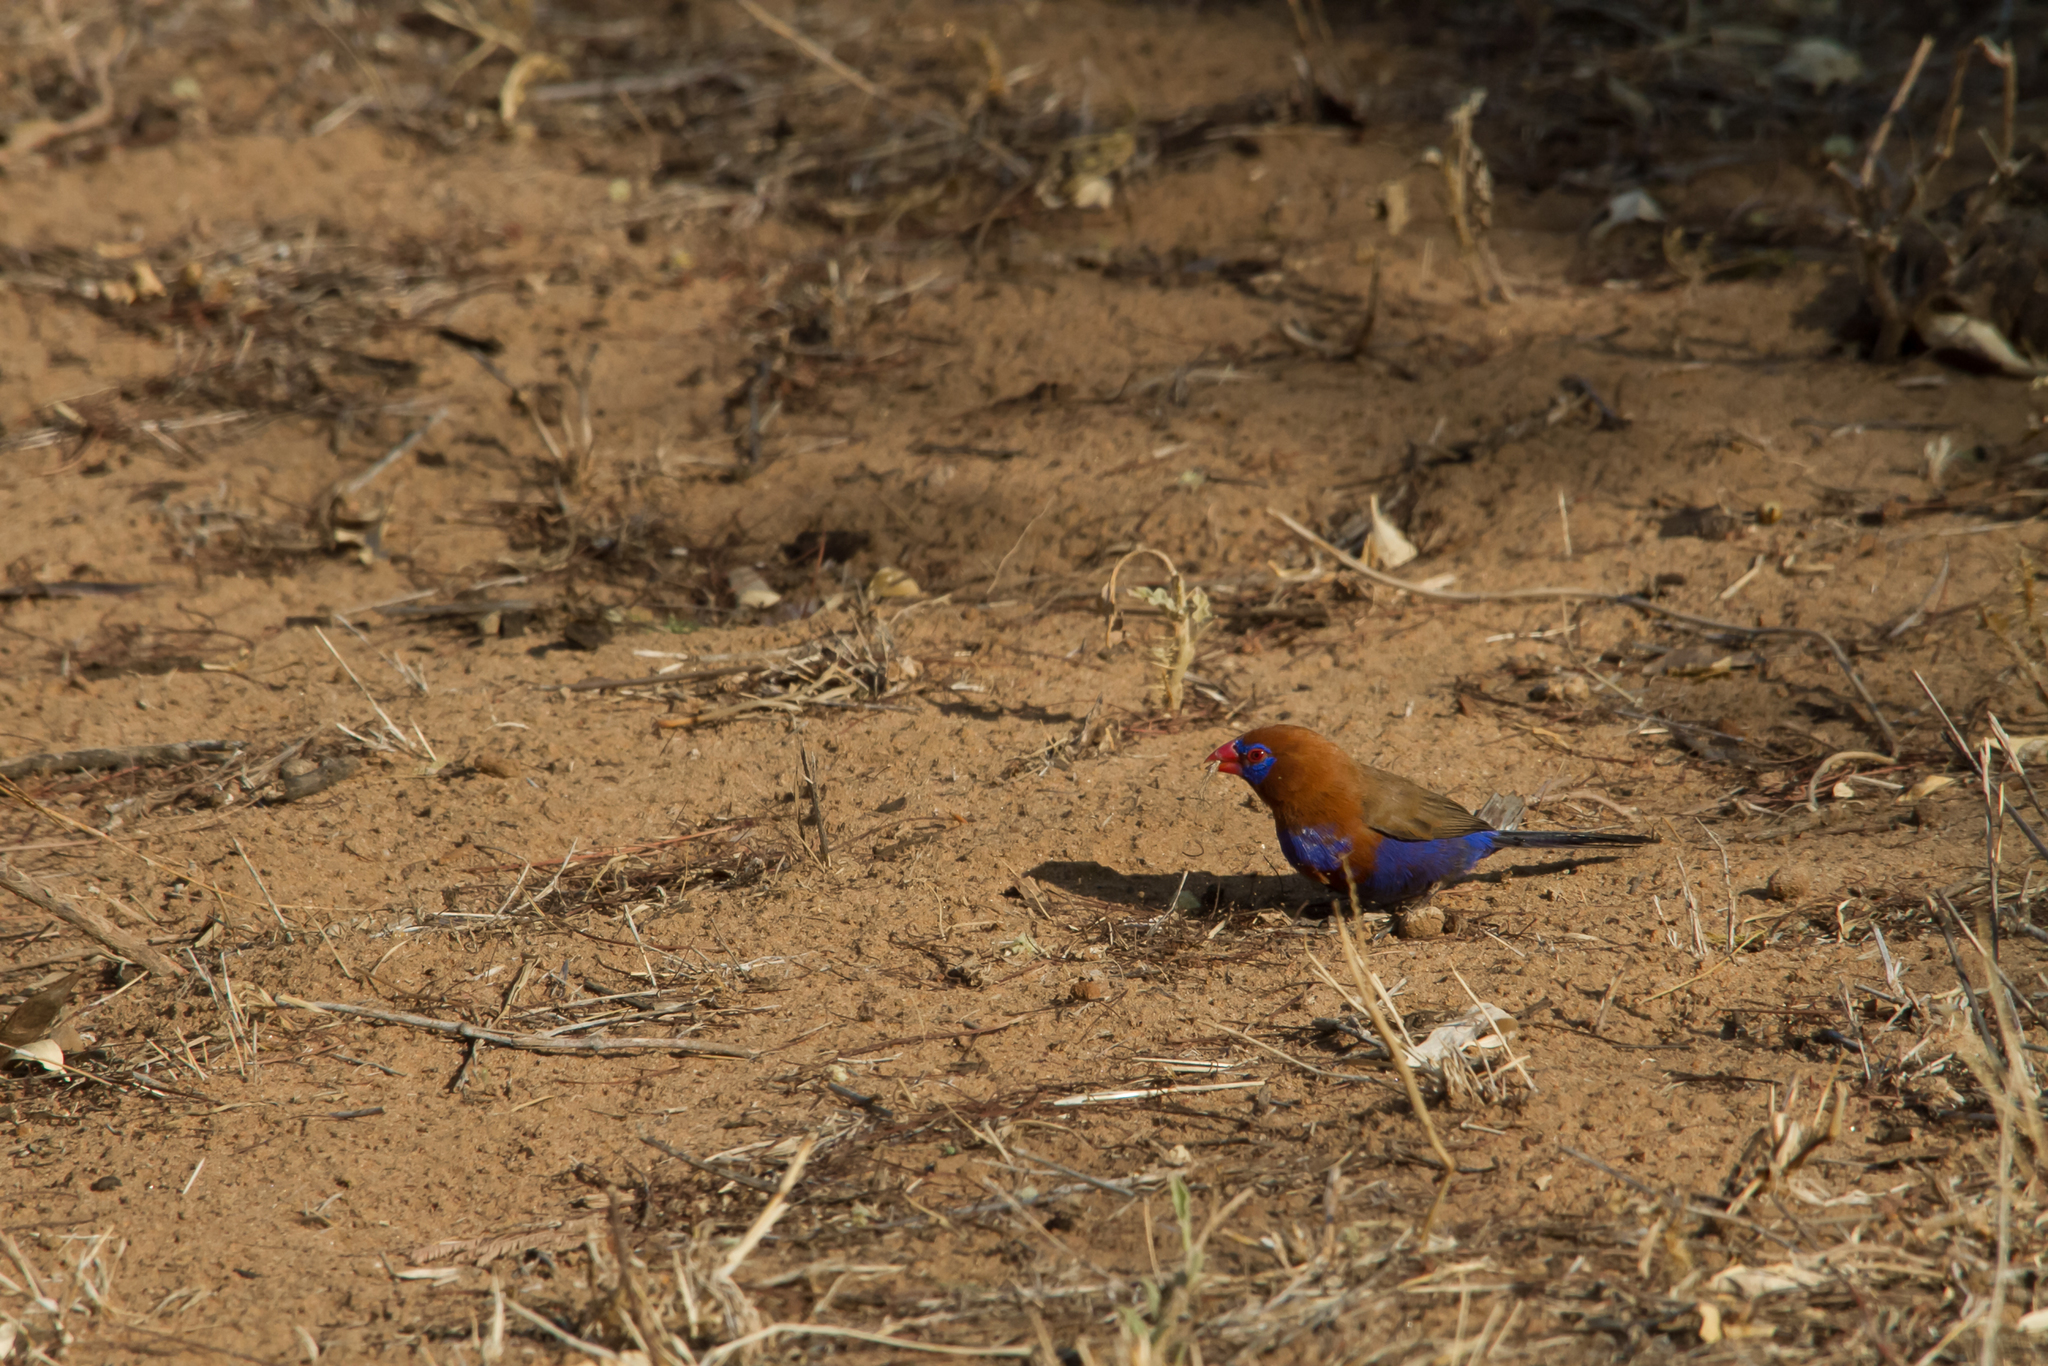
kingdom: Animalia
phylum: Chordata
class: Aves
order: Passeriformes
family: Estrildidae
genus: Uraeginthus
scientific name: Uraeginthus ianthinogaster
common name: Purple grenadier
